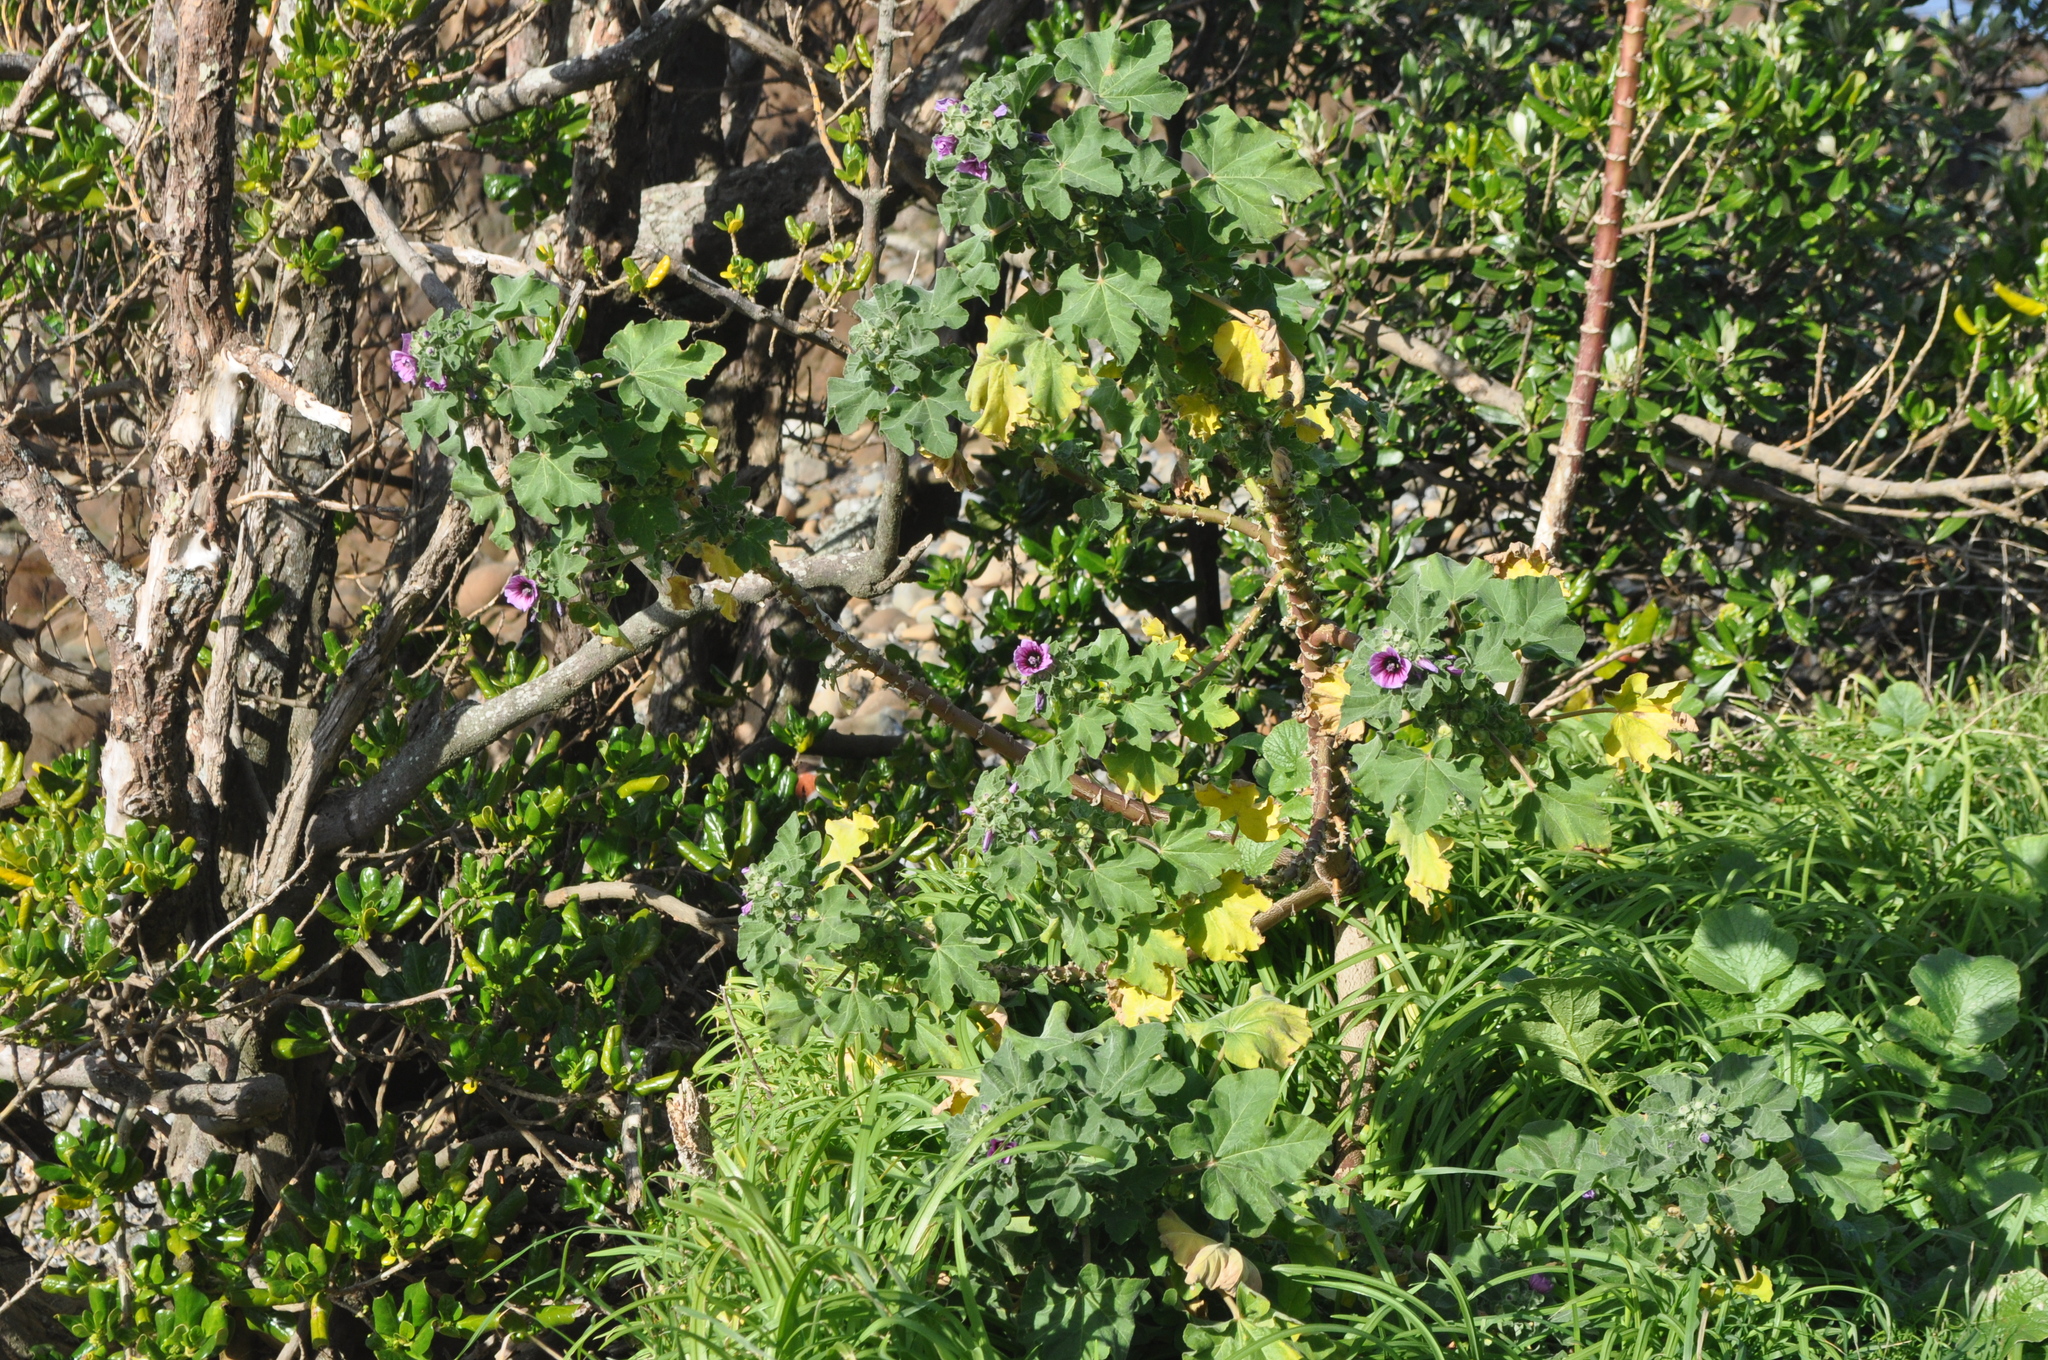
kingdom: Plantae
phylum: Tracheophyta
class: Magnoliopsida
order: Malvales
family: Malvaceae
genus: Malva
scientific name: Malva arborea
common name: Tree mallow
